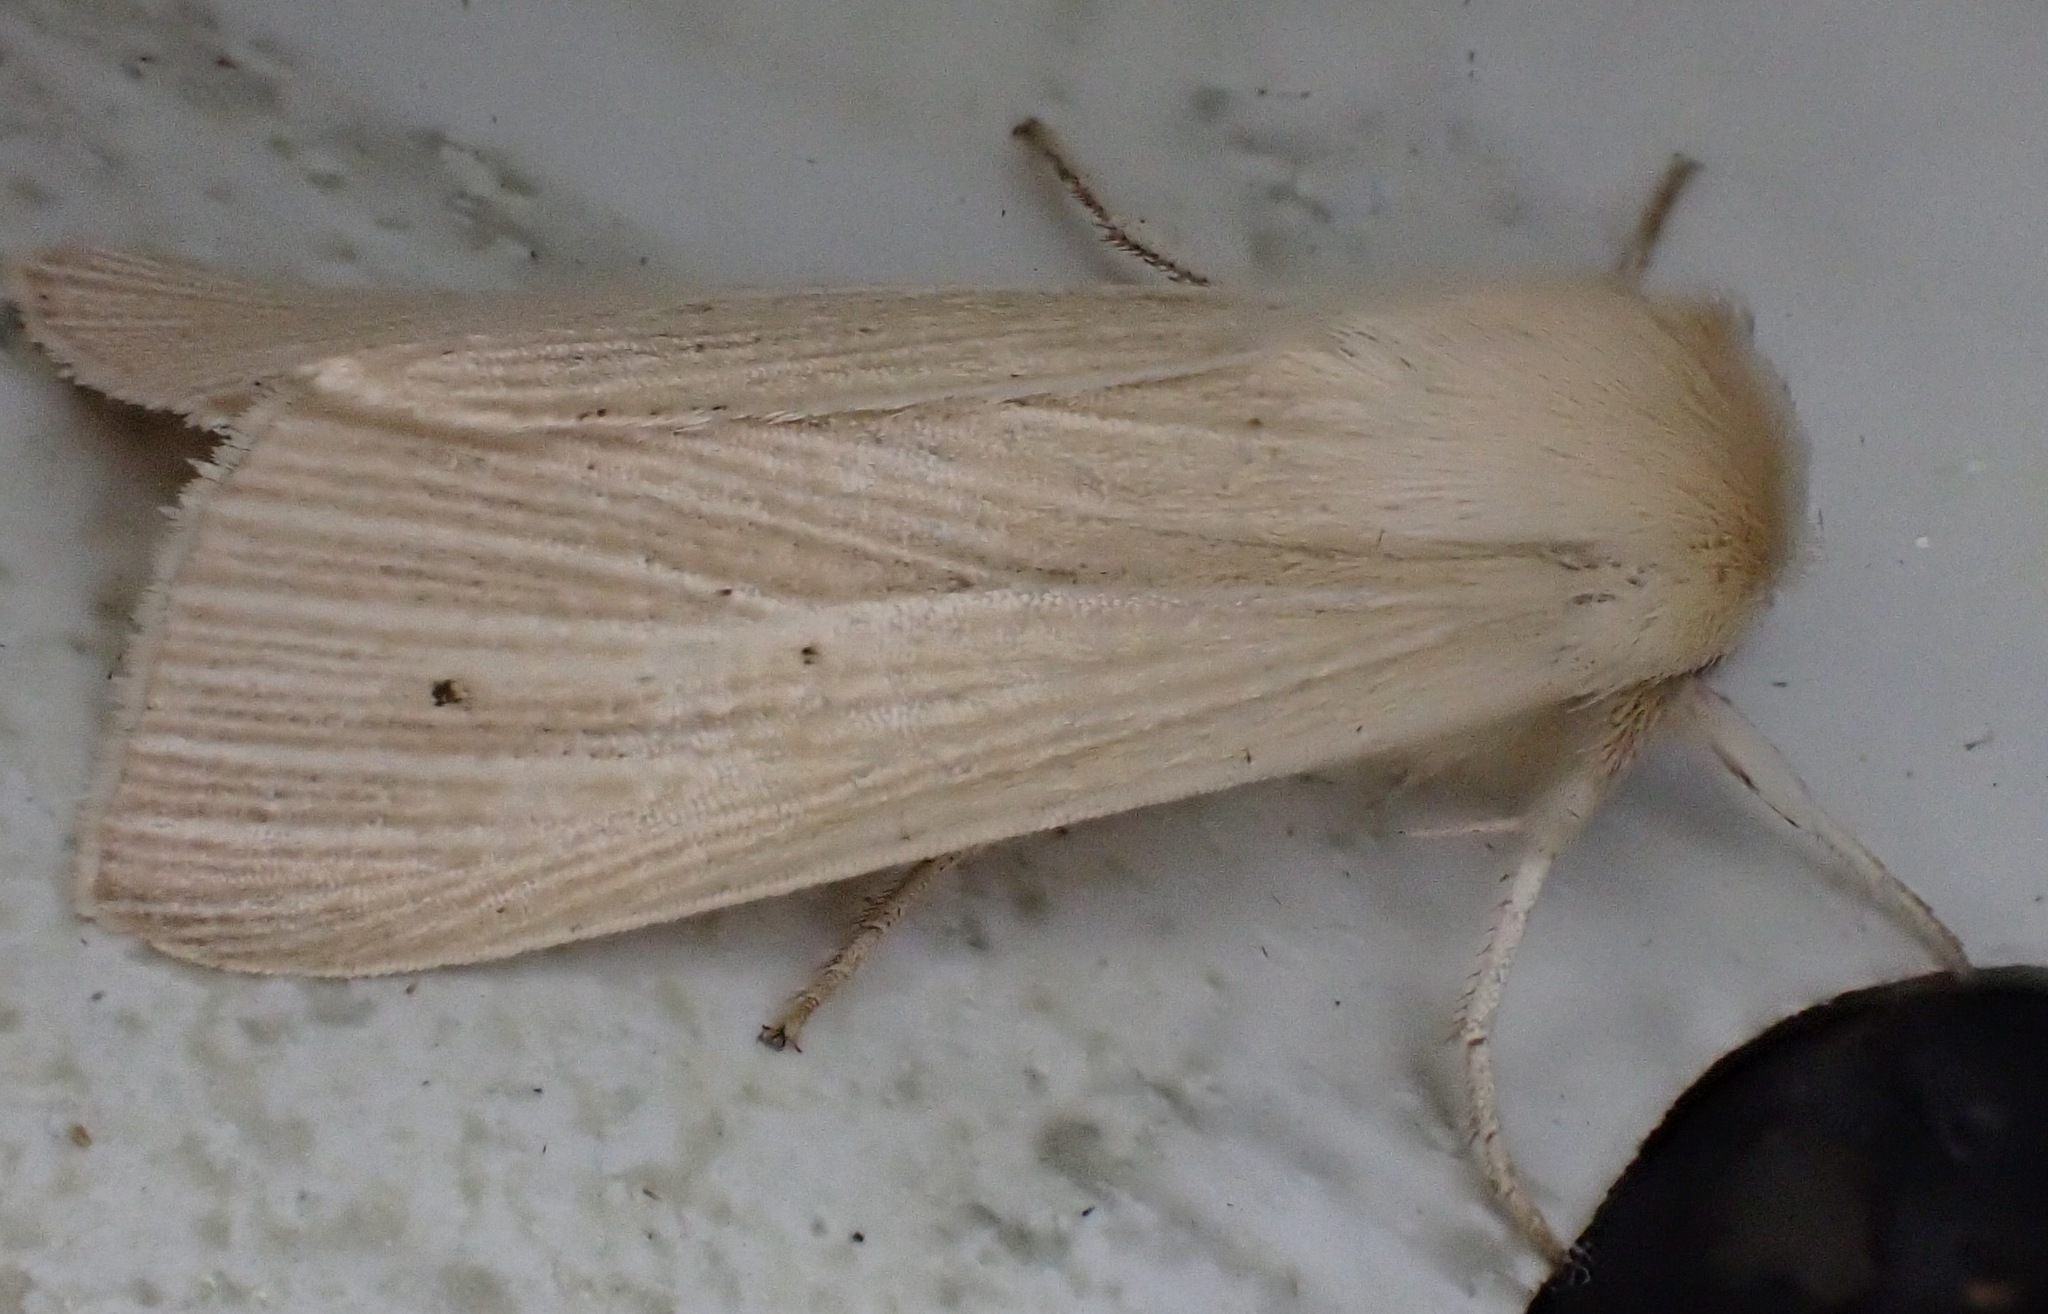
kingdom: Animalia
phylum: Arthropoda
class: Insecta
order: Lepidoptera
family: Noctuidae
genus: Mythimna
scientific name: Mythimna pallens
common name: Common wainscot
